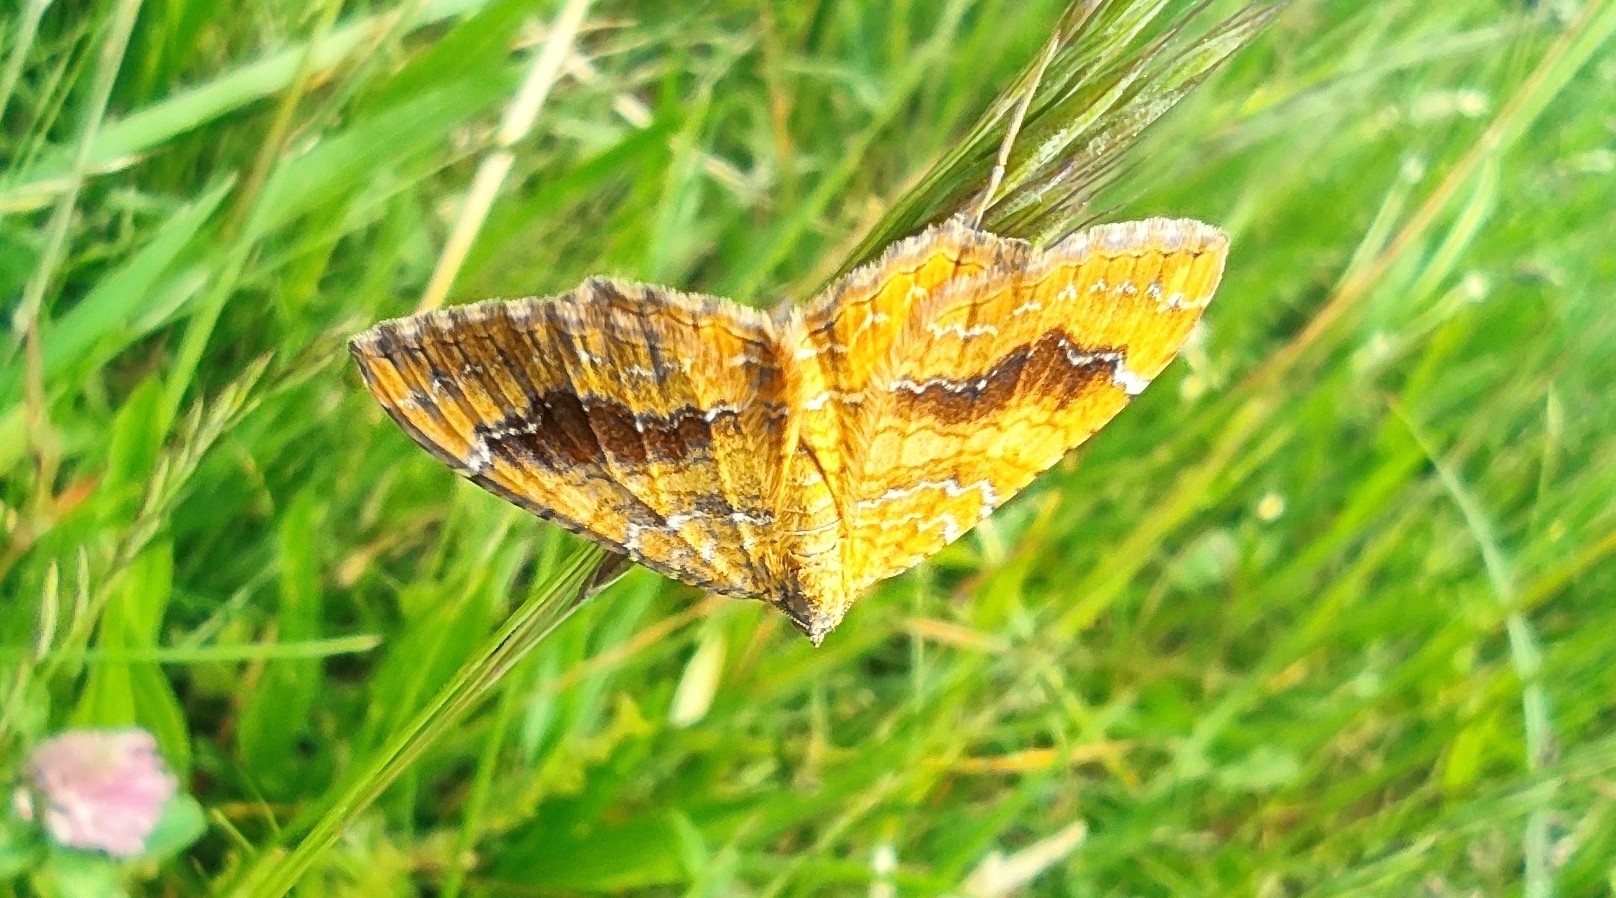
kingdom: Animalia
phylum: Arthropoda
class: Insecta
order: Lepidoptera
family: Geometridae
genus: Camptogramma
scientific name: Camptogramma bilineata
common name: Yellow shell
